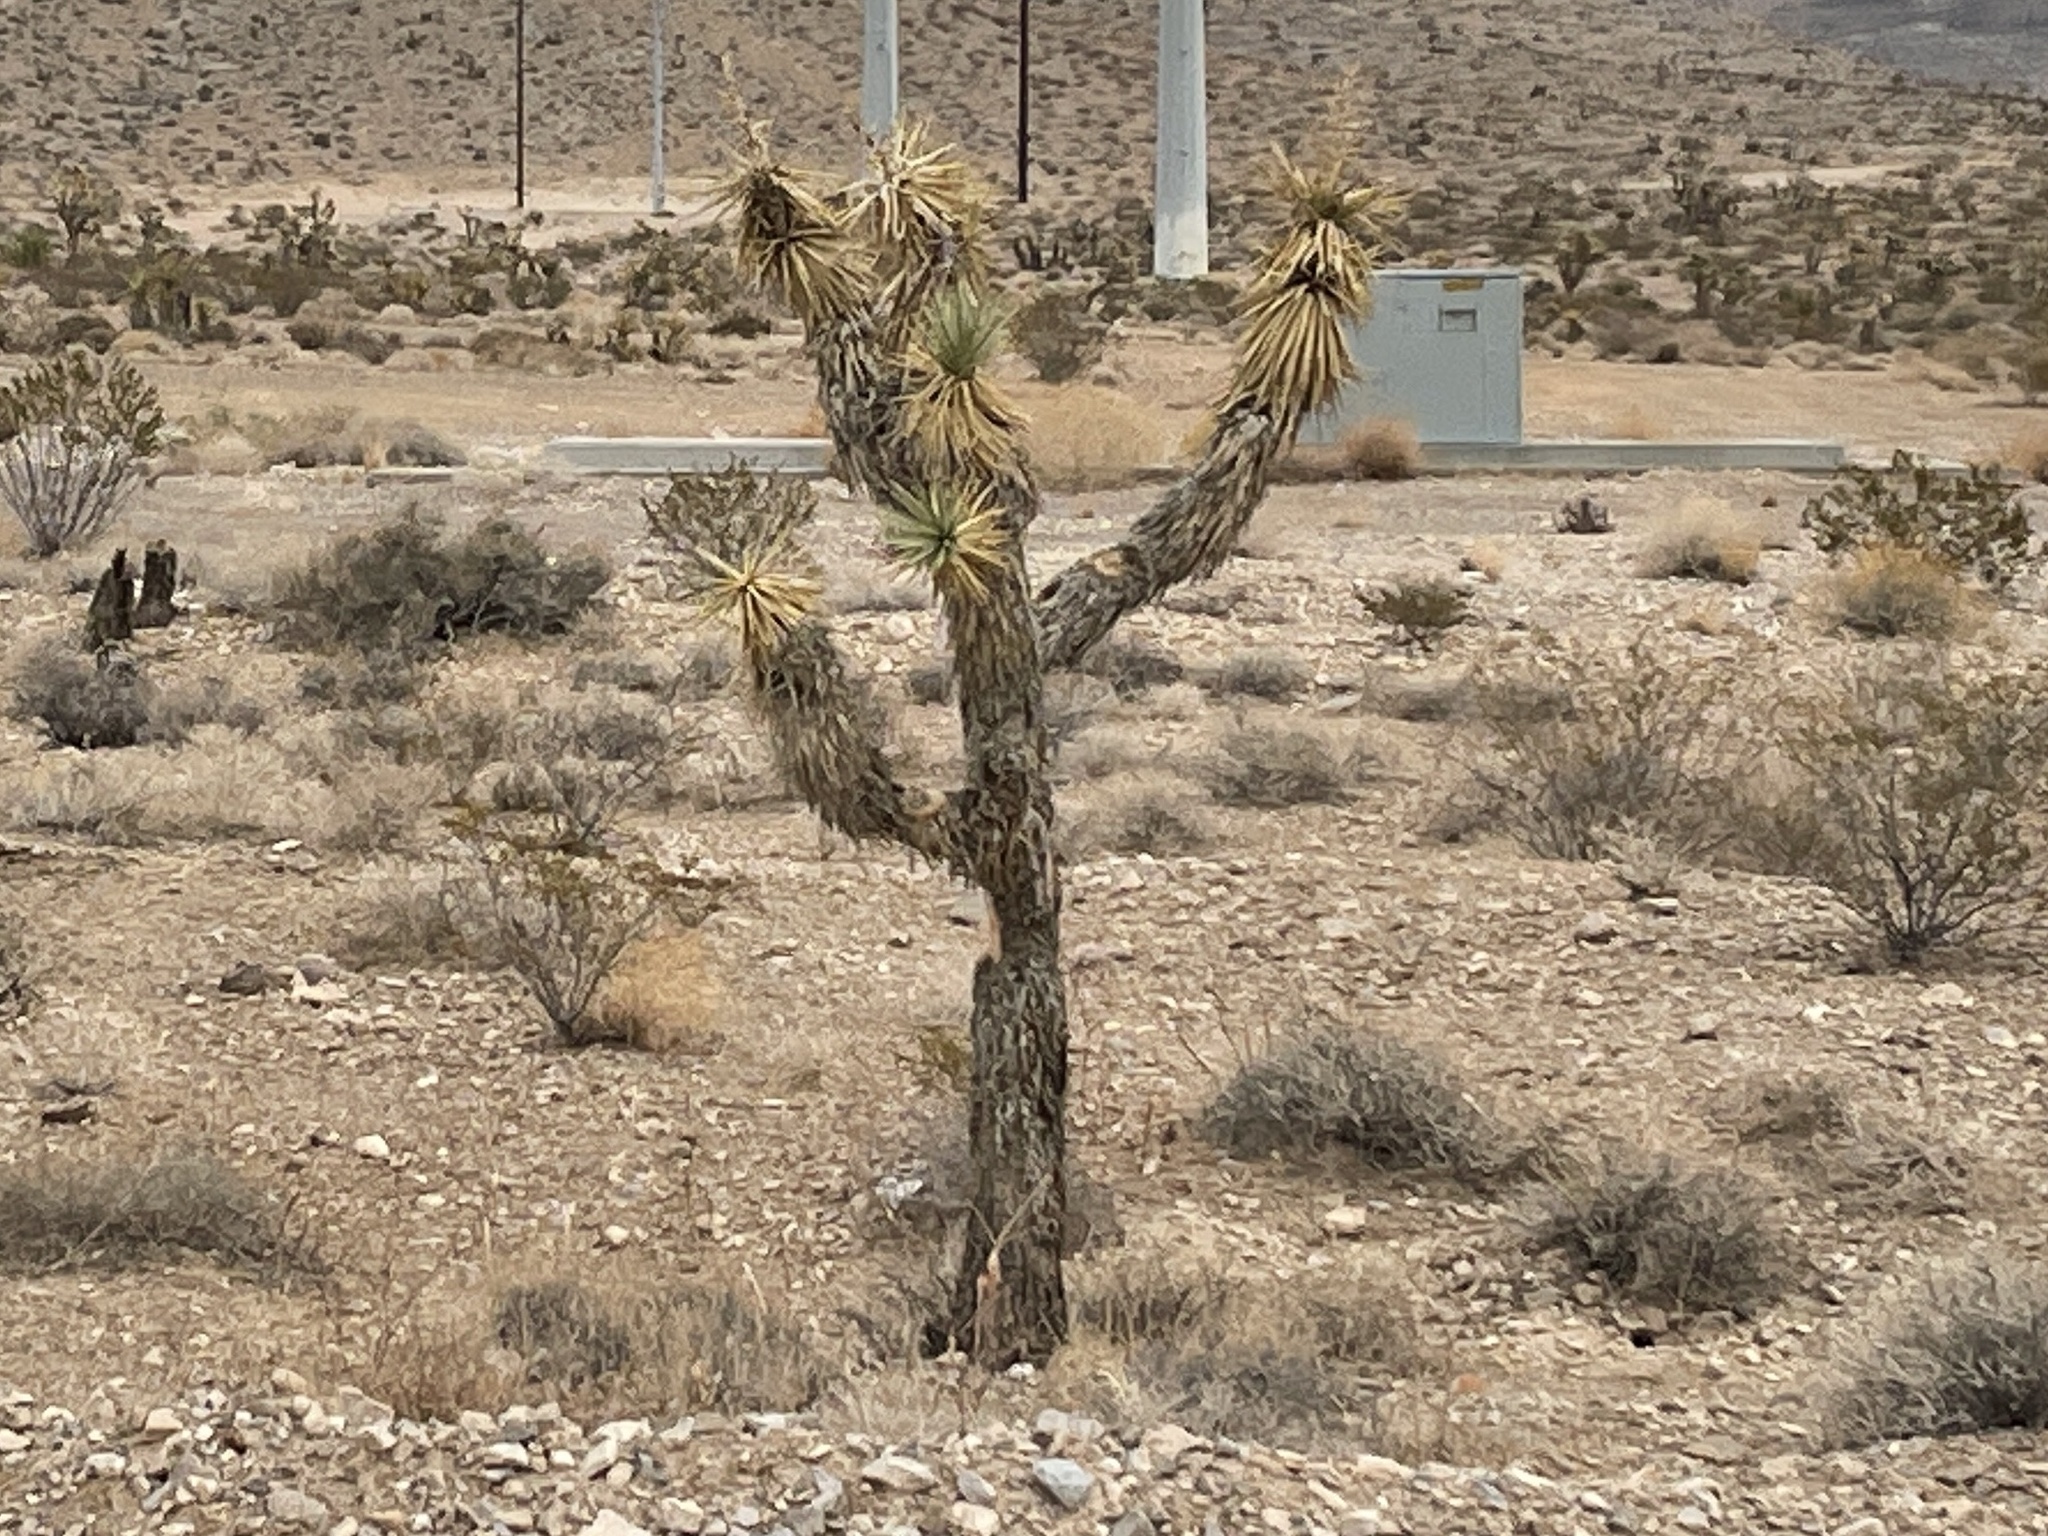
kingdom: Plantae
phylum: Tracheophyta
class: Liliopsida
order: Asparagales
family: Asparagaceae
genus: Yucca
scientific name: Yucca brevifolia
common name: Joshua tree
